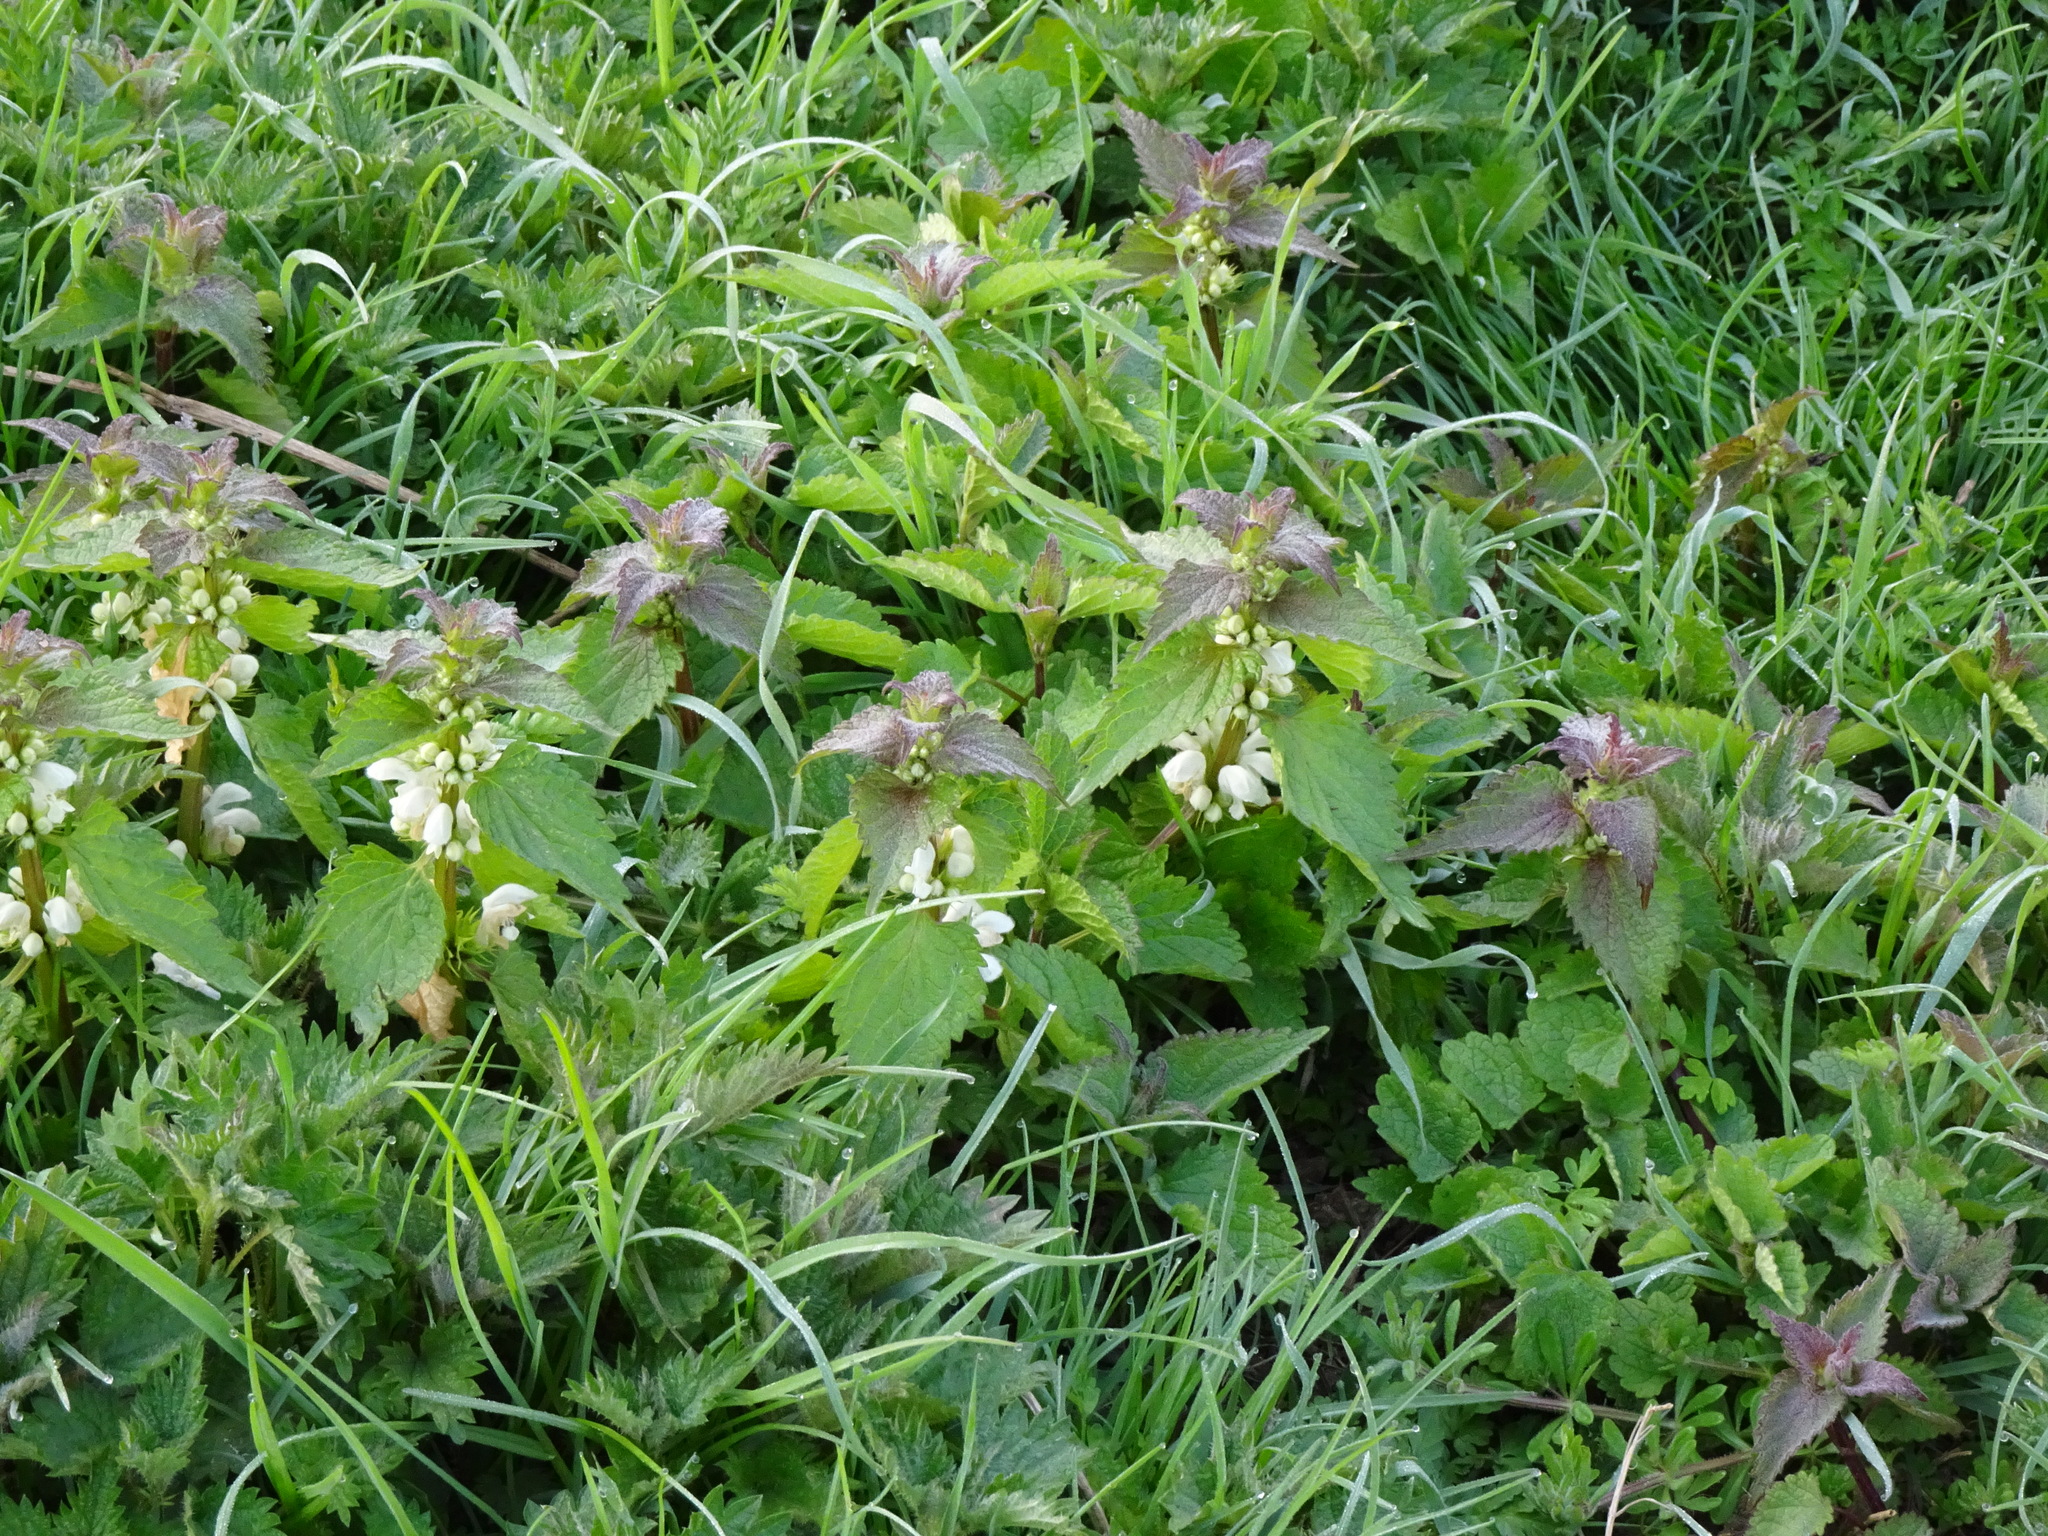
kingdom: Plantae
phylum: Tracheophyta
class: Magnoliopsida
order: Lamiales
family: Lamiaceae
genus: Lamium
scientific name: Lamium album
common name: White dead-nettle
